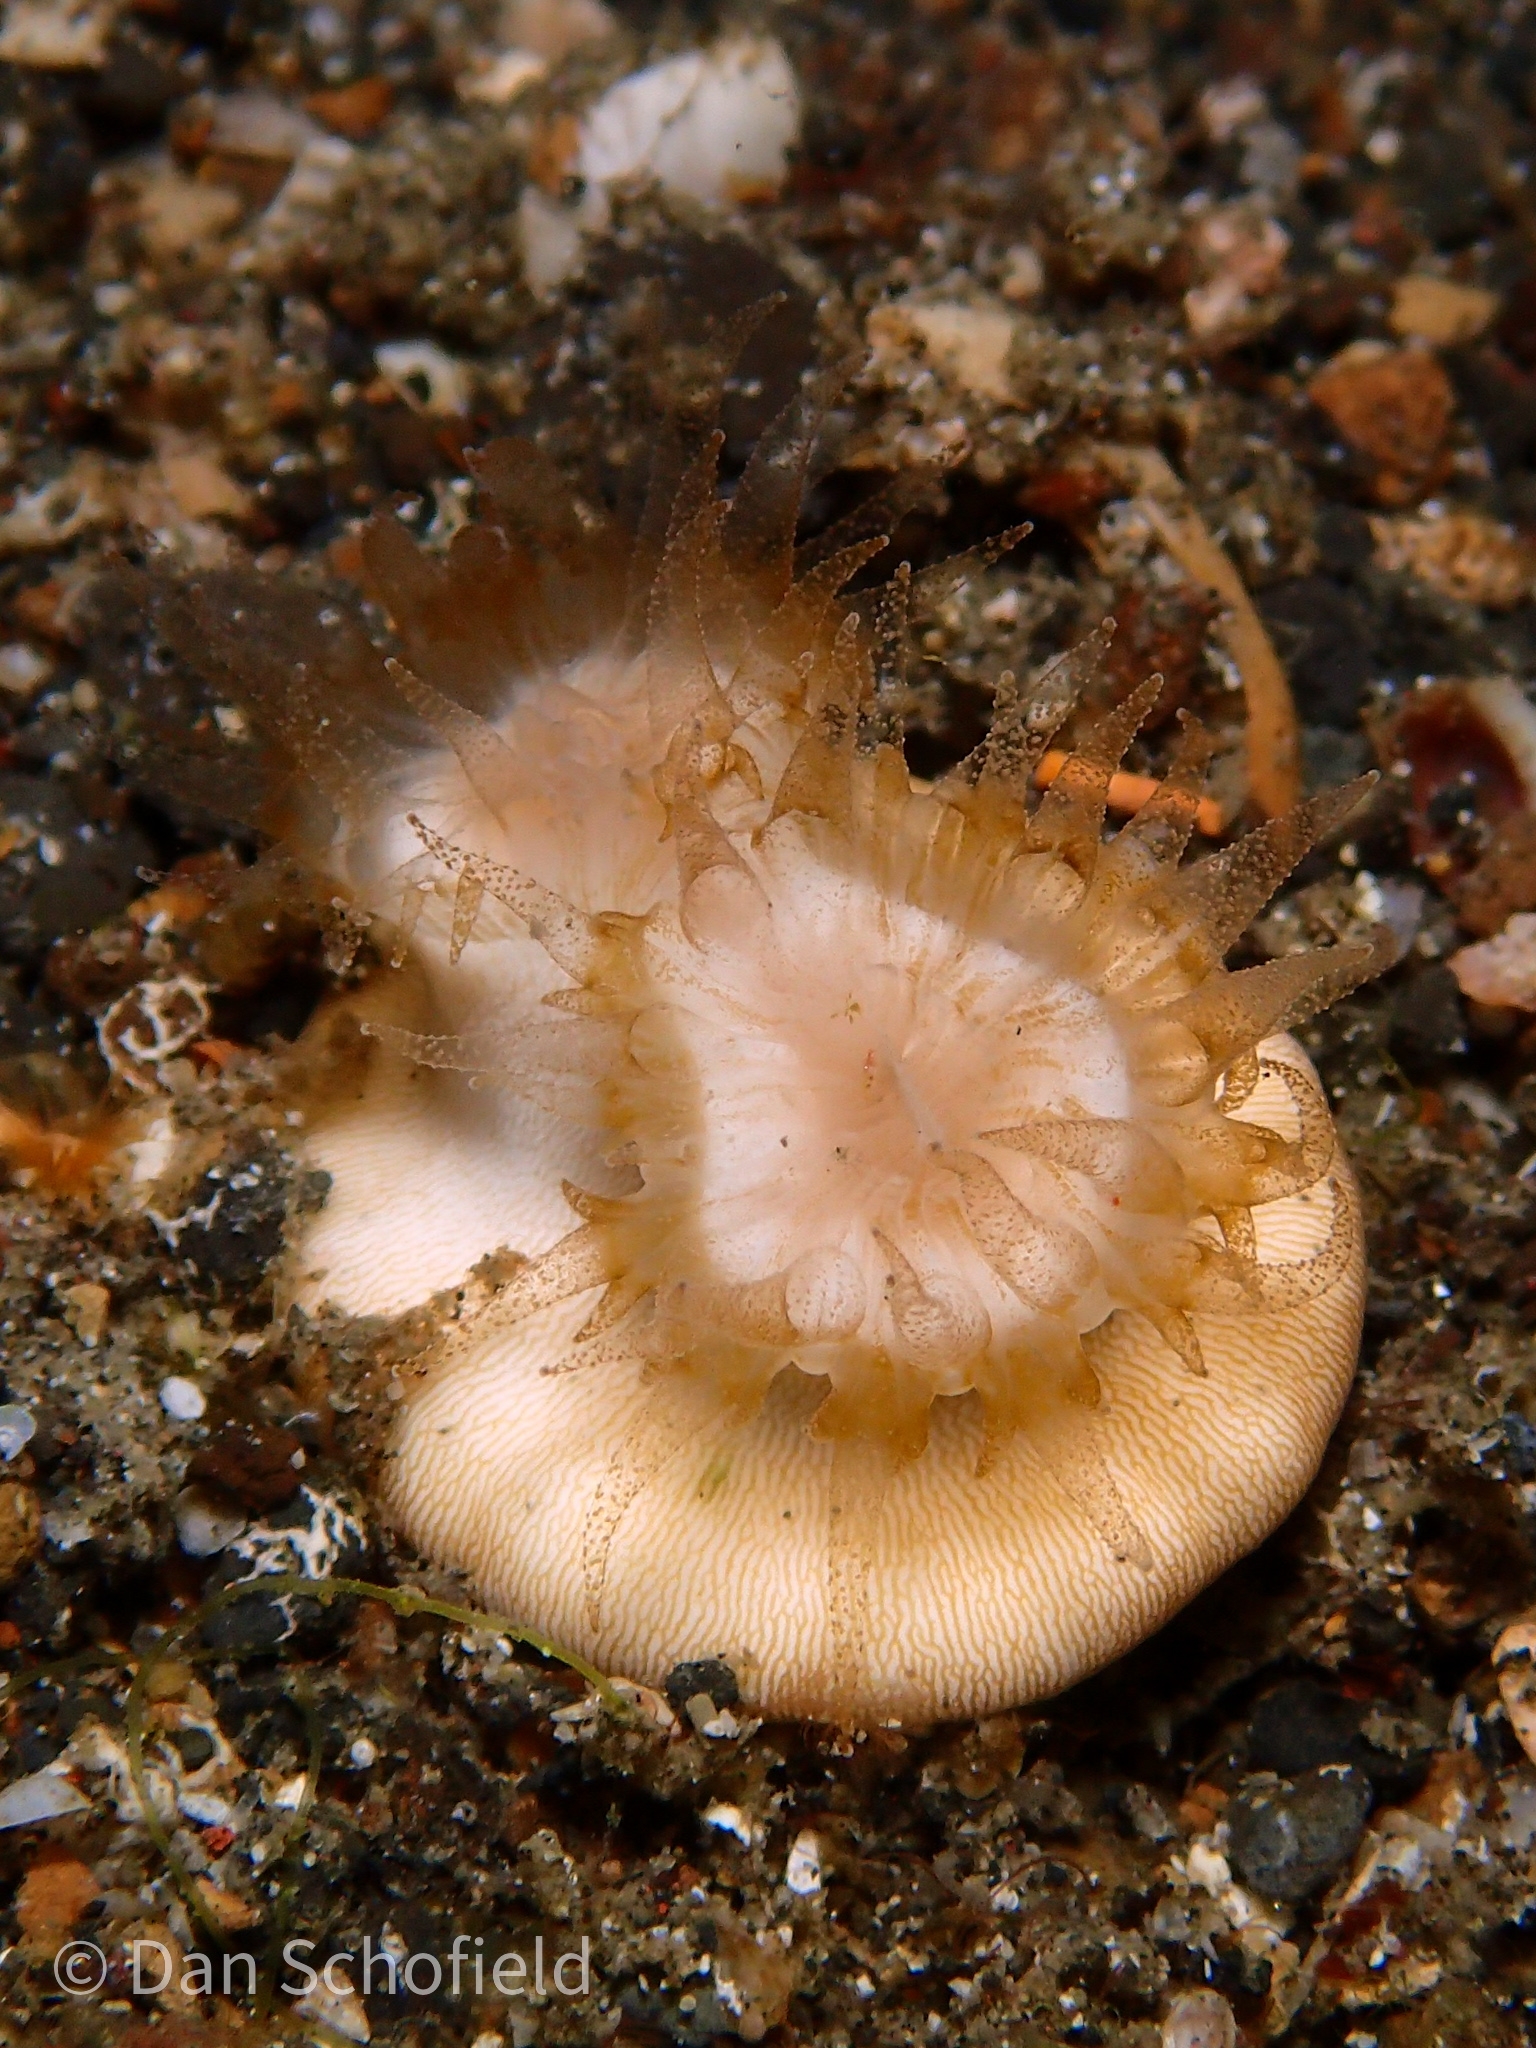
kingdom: Animalia
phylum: Cnidaria
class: Anthozoa
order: Scleractinia
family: Dendrophylliidae
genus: Heteropsammia
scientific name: Heteropsammia cochlea
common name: Smooth bum coral
